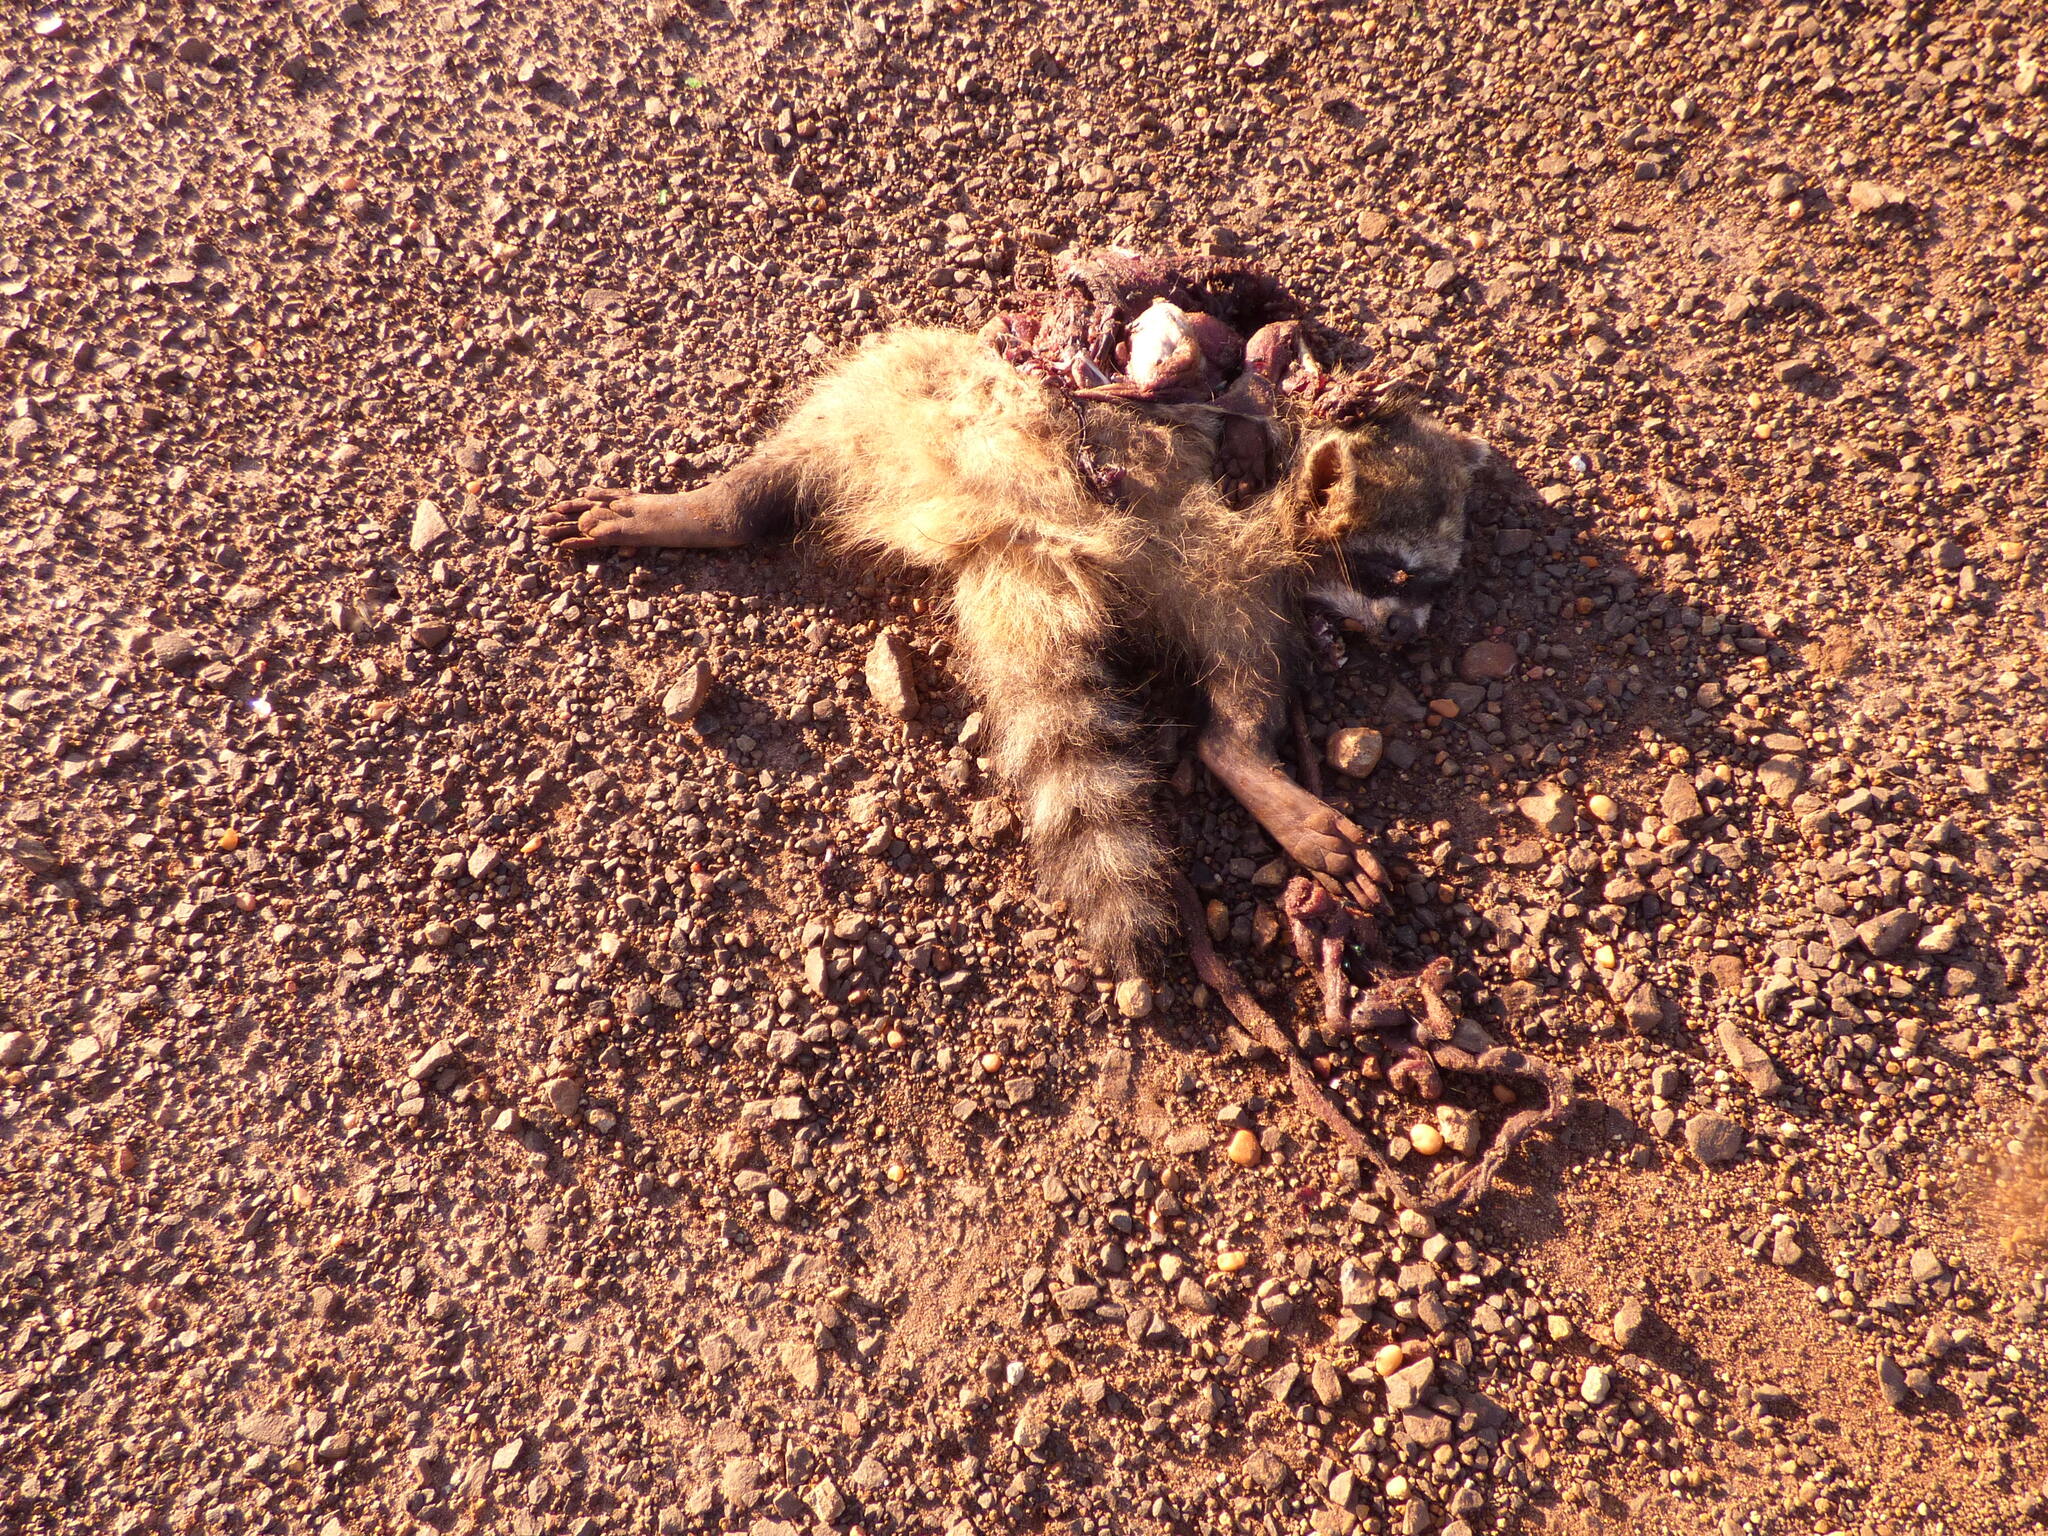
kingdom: Animalia
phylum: Chordata
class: Mammalia
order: Carnivora
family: Procyonidae
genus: Procyon
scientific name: Procyon cancrivorus
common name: Crab-eating raccoon
